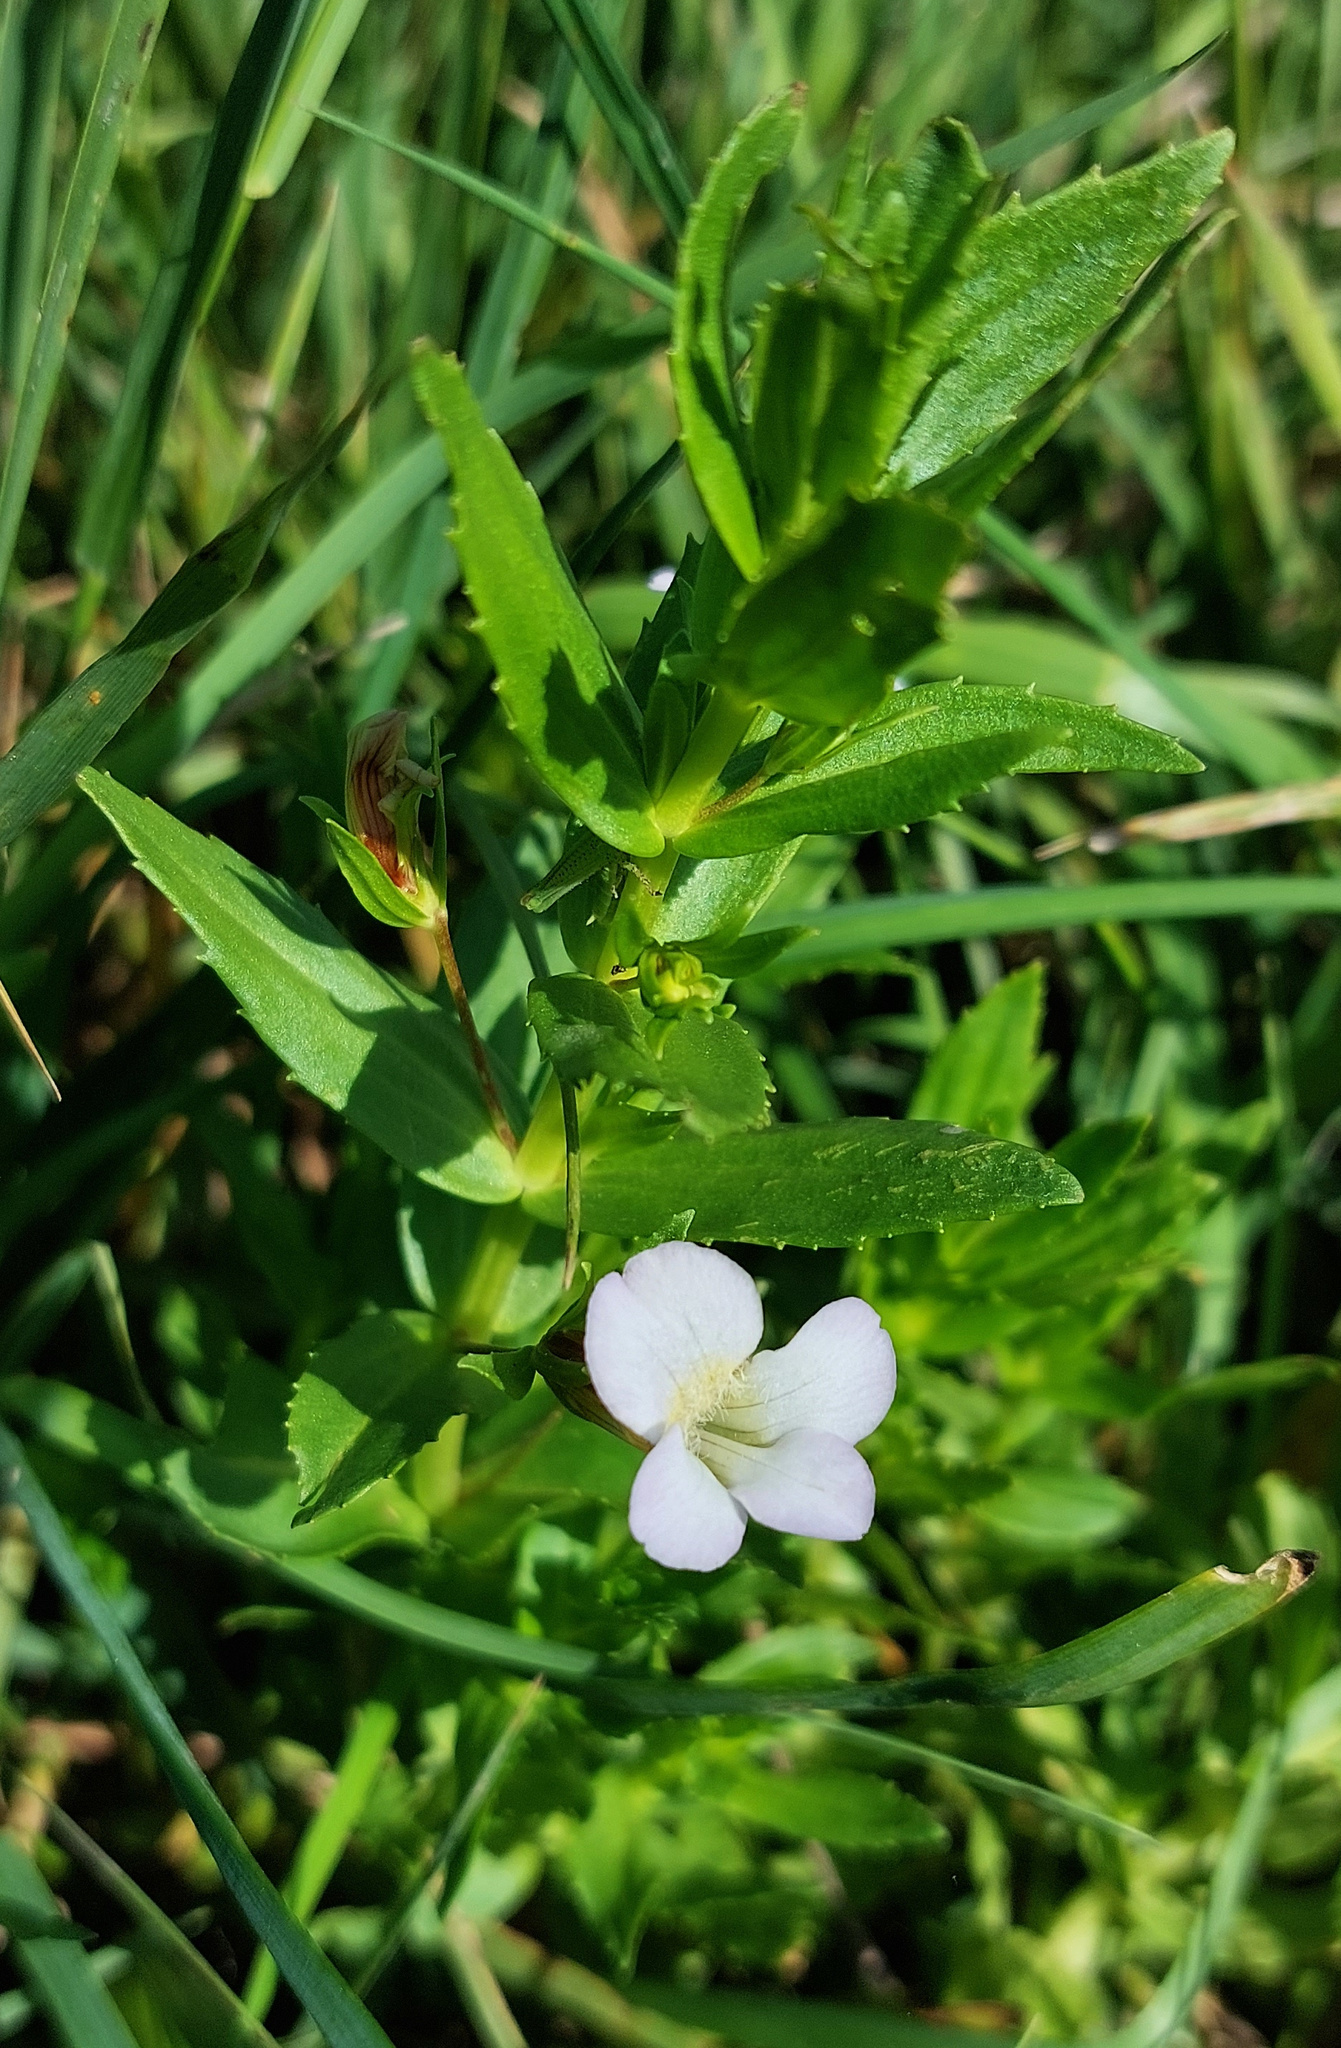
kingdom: Plantae
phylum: Tracheophyta
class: Magnoliopsida
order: Lamiales
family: Plantaginaceae
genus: Gratiola
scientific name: Gratiola officinalis
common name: Gratiola
